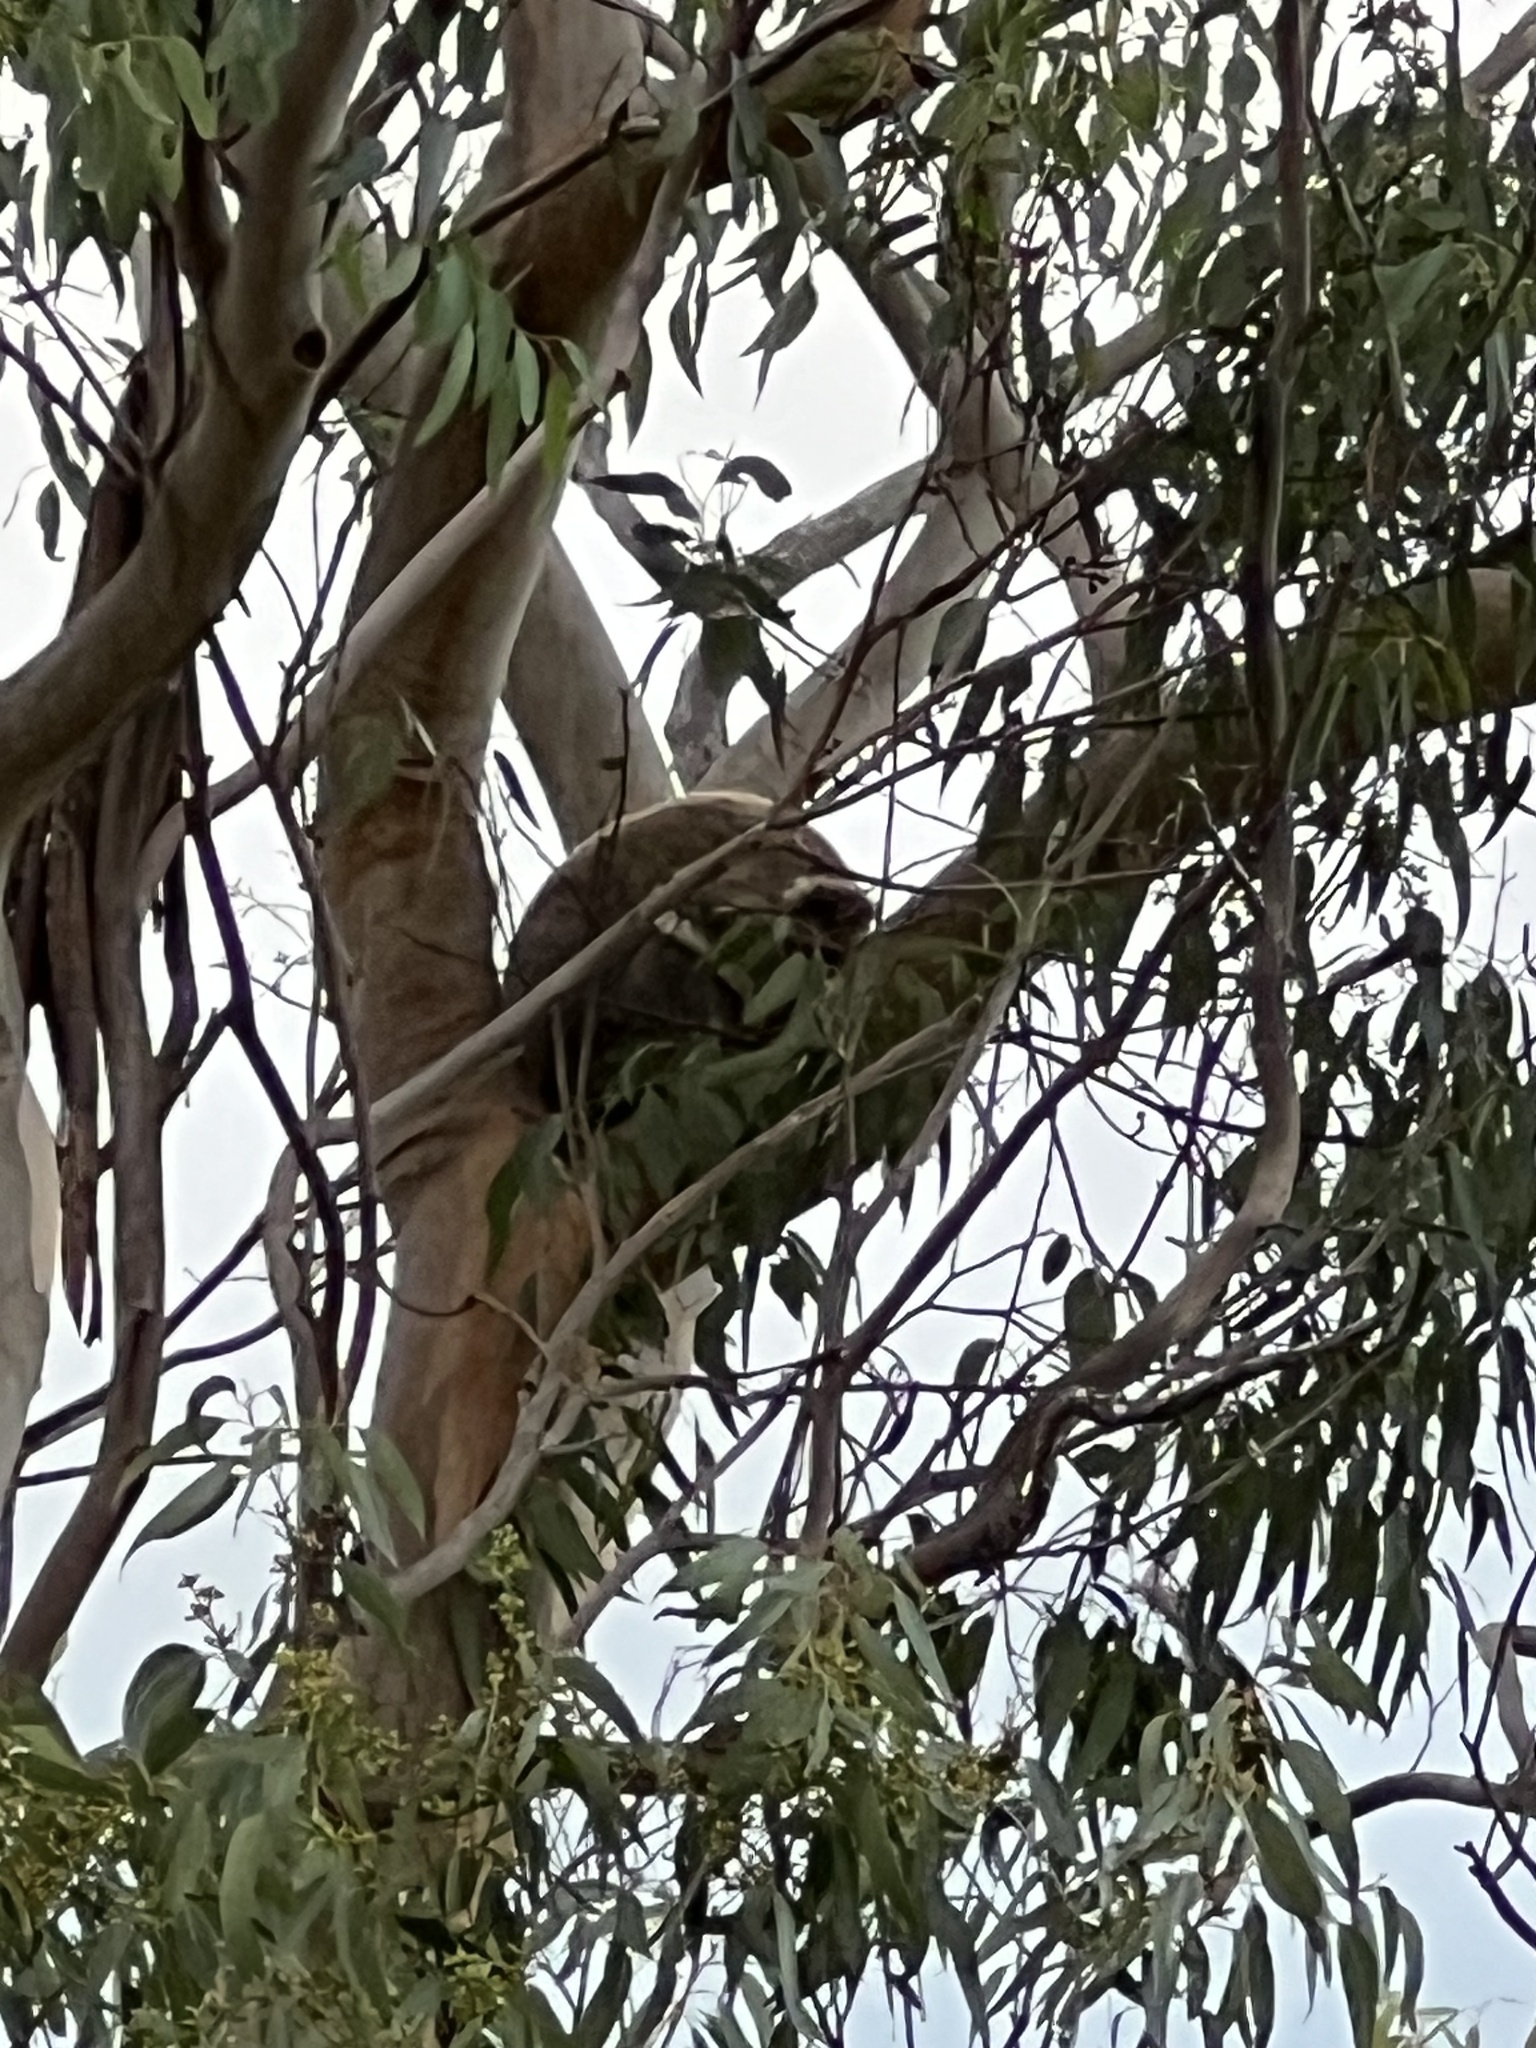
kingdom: Animalia
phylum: Chordata
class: Mammalia
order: Diprotodontia
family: Phascolarctidae
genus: Phascolarctos
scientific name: Phascolarctos cinereus
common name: Koala
